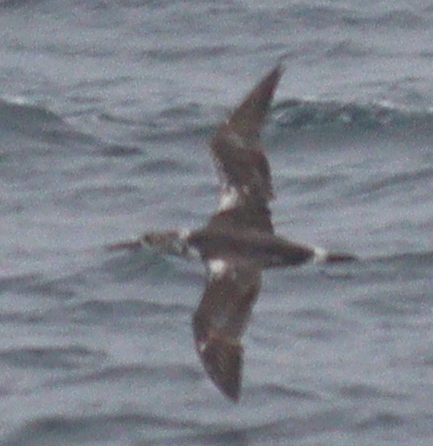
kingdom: Animalia
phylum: Chordata
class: Aves
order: Suliformes
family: Sulidae
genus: Morus
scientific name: Morus bassanus
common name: Northern gannet
